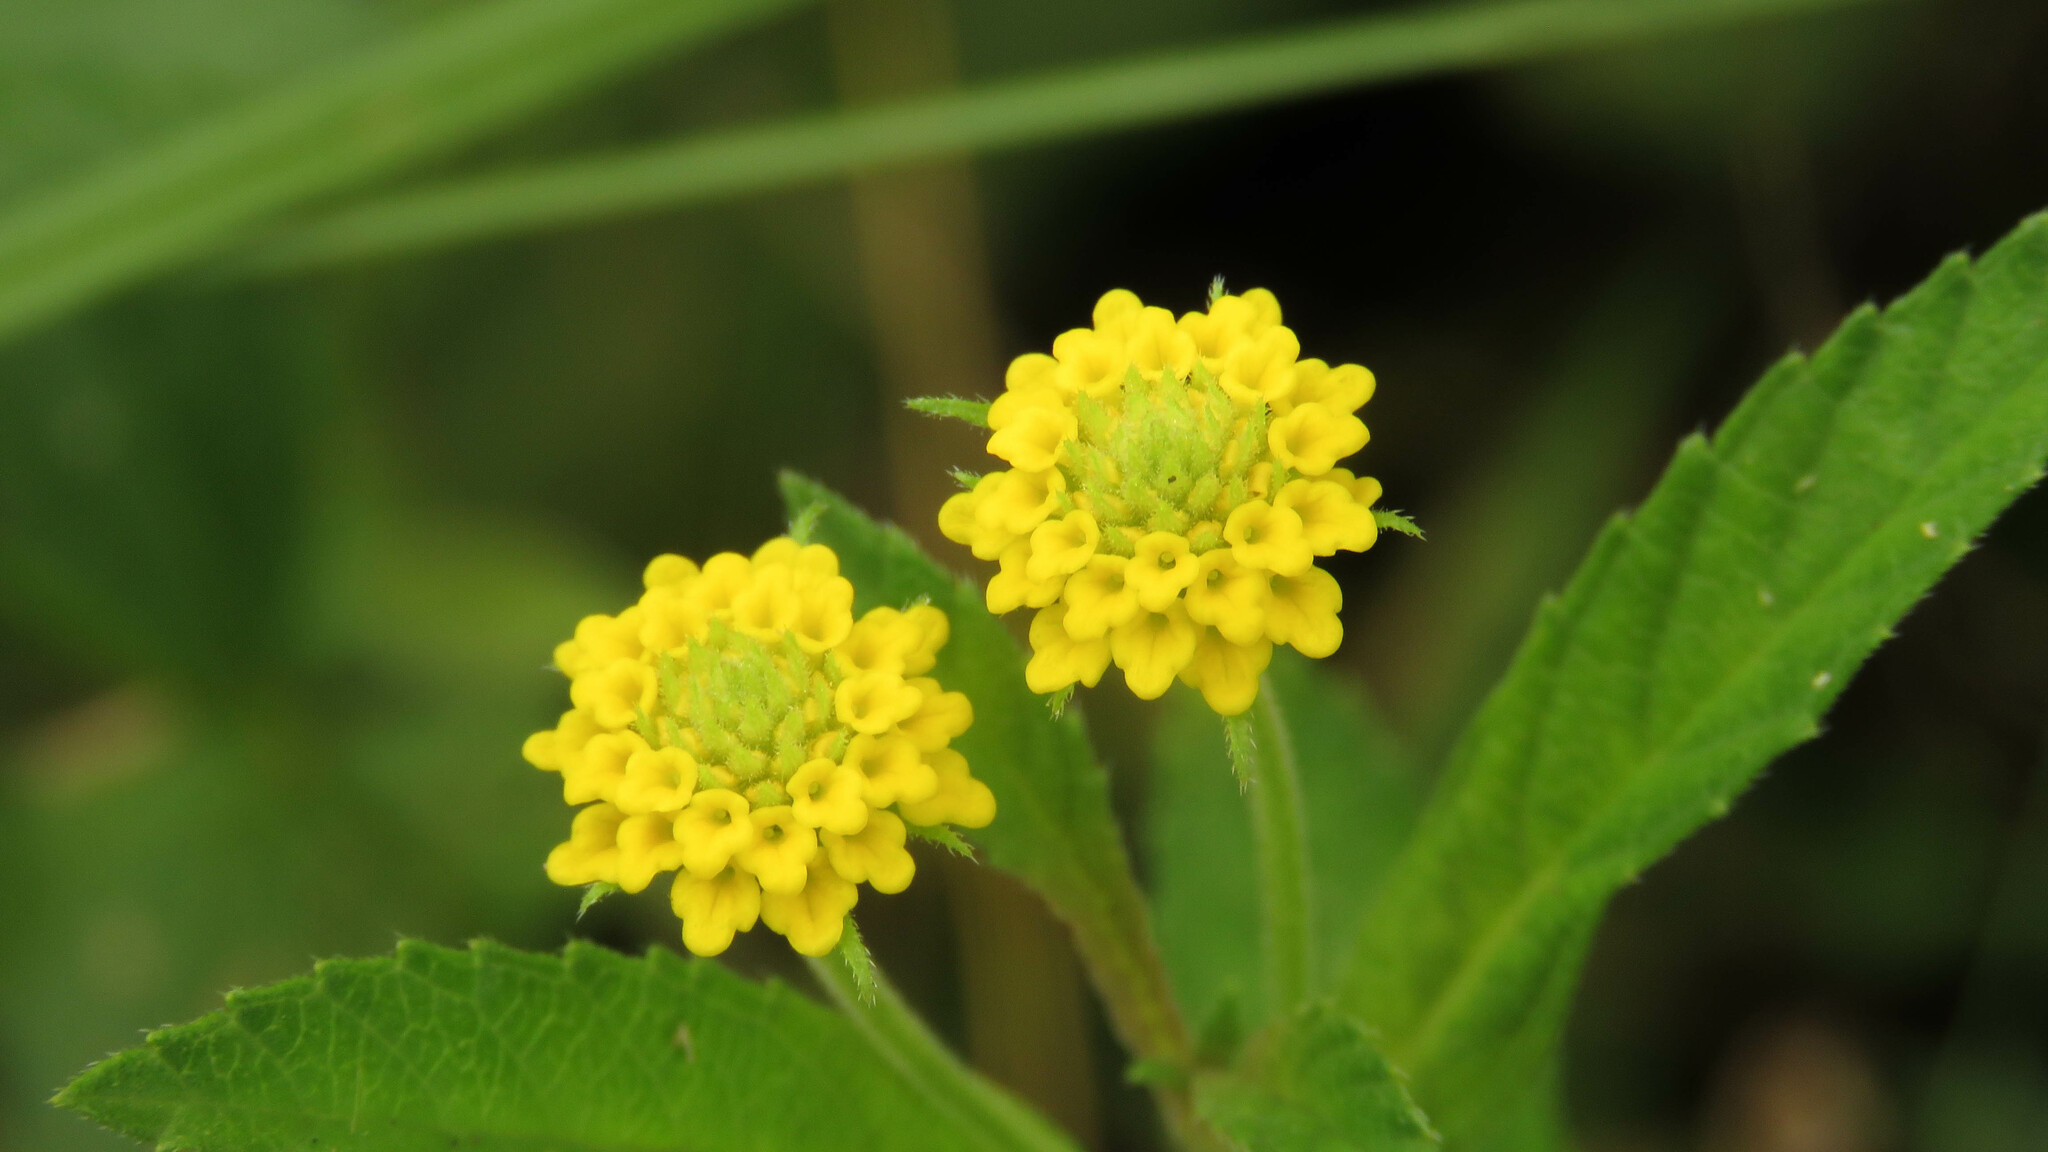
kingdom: Plantae
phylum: Tracheophyta
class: Magnoliopsida
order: Lamiales
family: Verbenaceae
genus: Lippia
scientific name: Lippia turnerifolia
